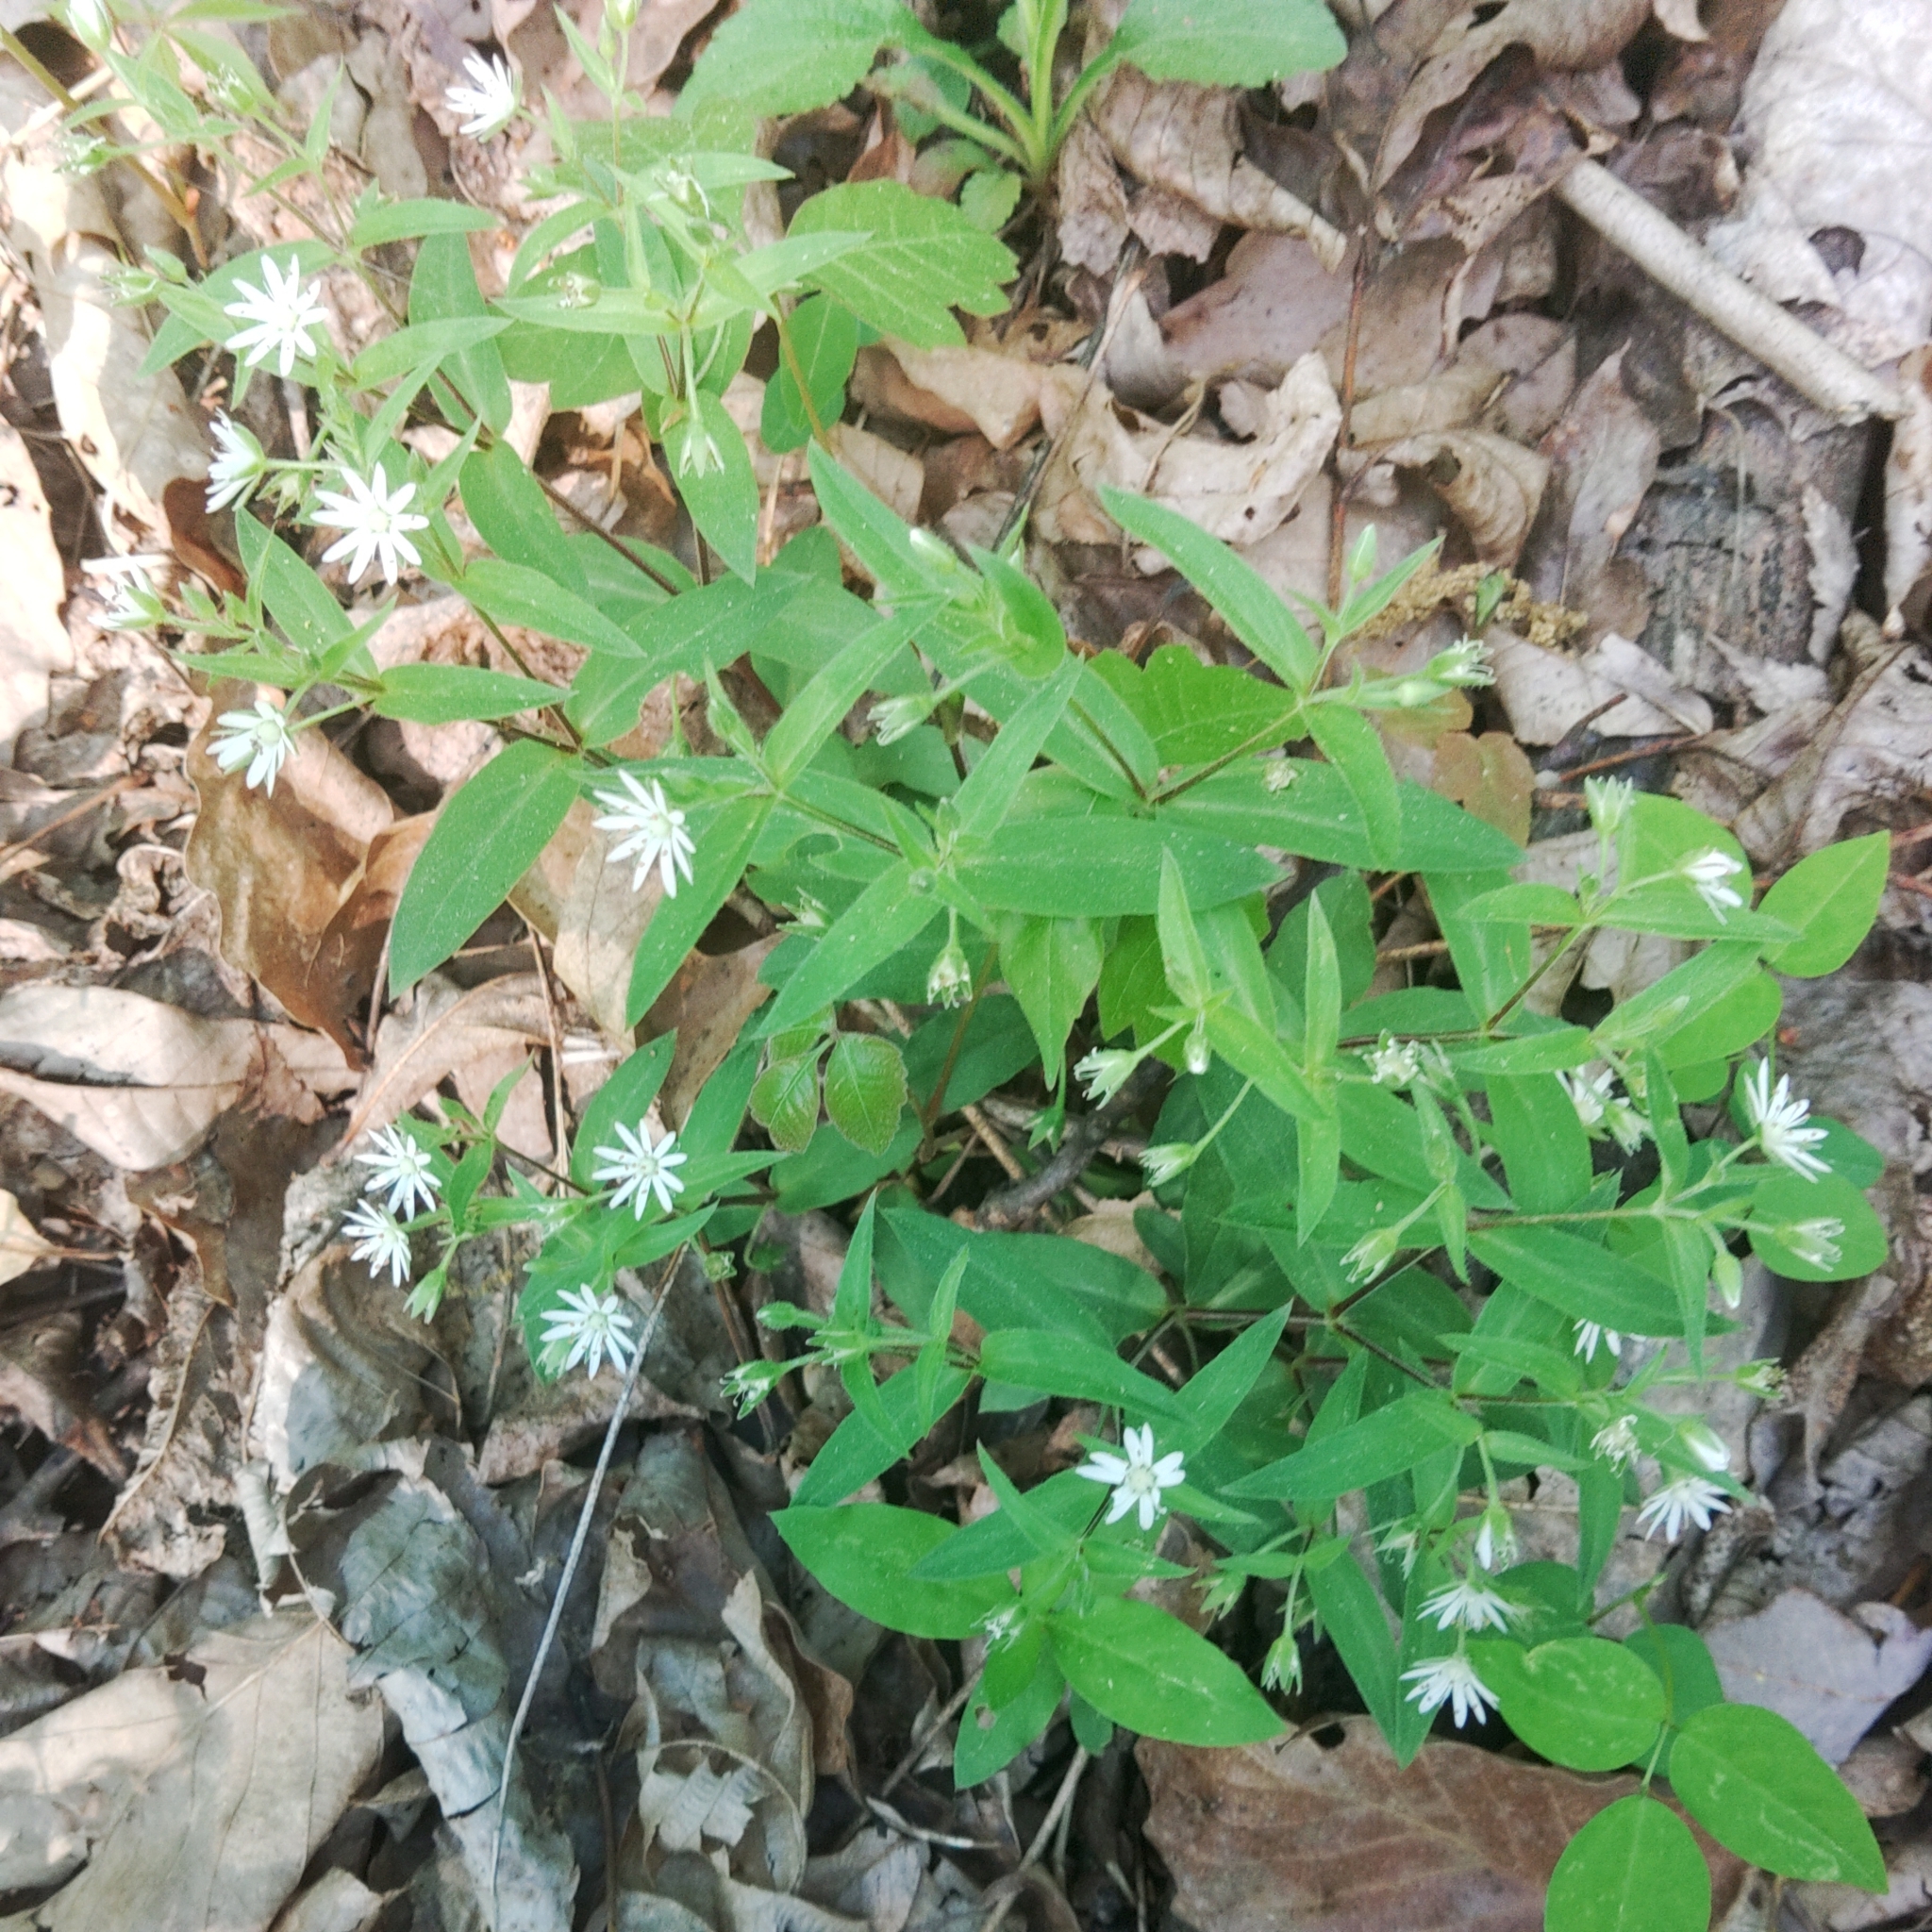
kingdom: Plantae
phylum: Tracheophyta
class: Magnoliopsida
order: Caryophyllales
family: Caryophyllaceae
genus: Stellaria
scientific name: Stellaria pubera
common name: Star chickweed
